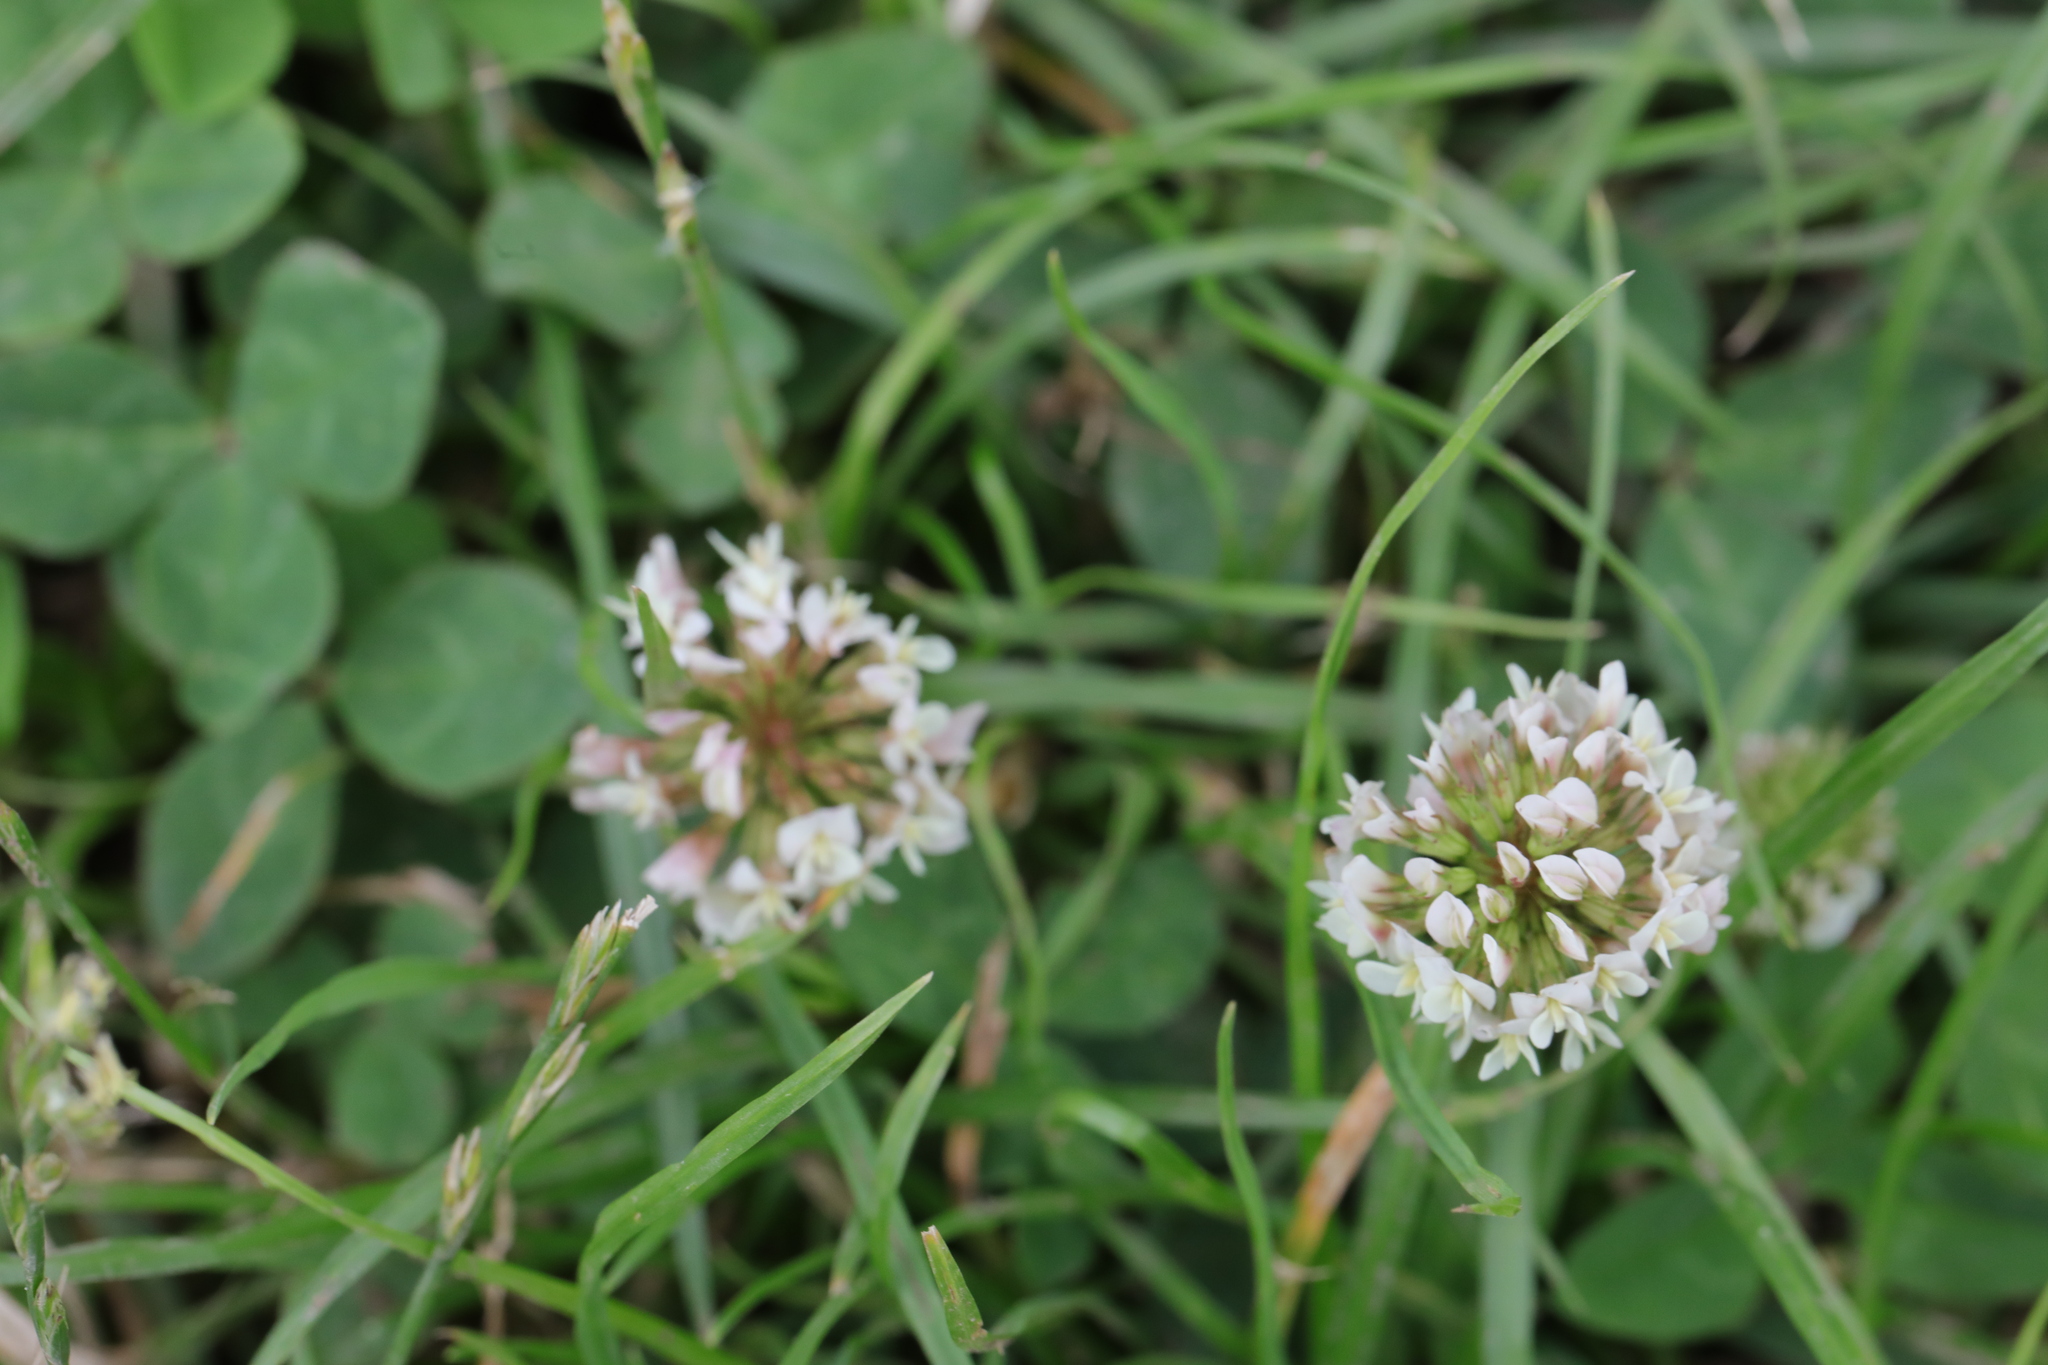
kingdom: Plantae
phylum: Tracheophyta
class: Magnoliopsida
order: Fabales
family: Fabaceae
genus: Trifolium
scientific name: Trifolium repens
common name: White clover
